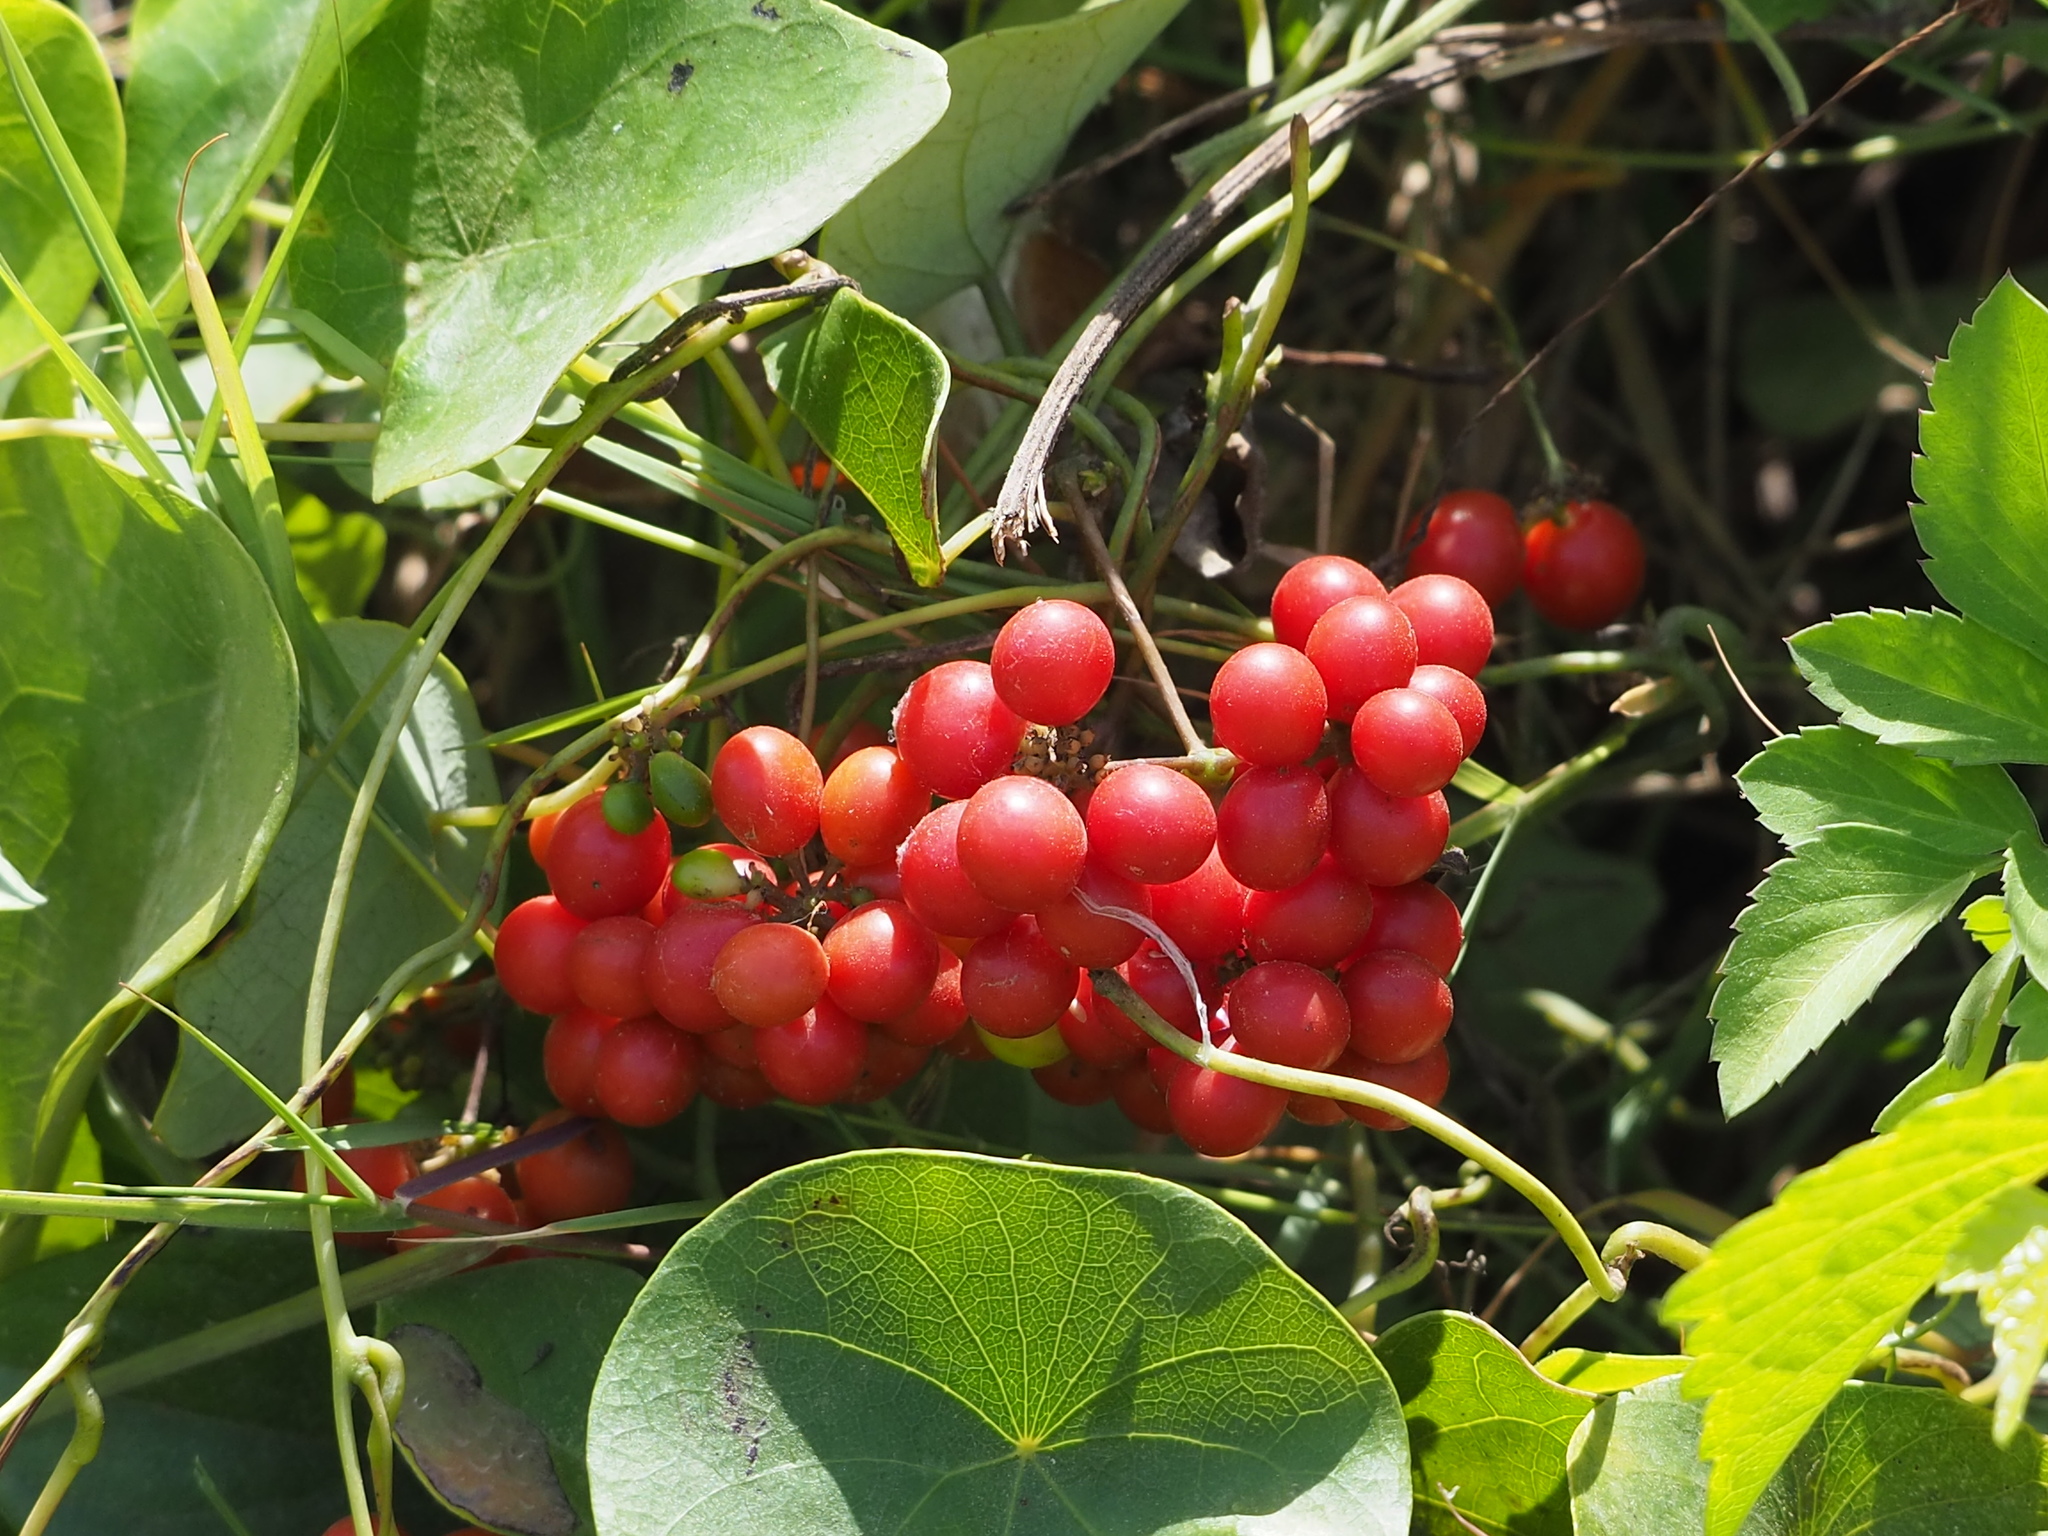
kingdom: Plantae
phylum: Tracheophyta
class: Magnoliopsida
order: Ranunculales
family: Menispermaceae
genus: Stephania
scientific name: Stephania japonica
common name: Snake vine
